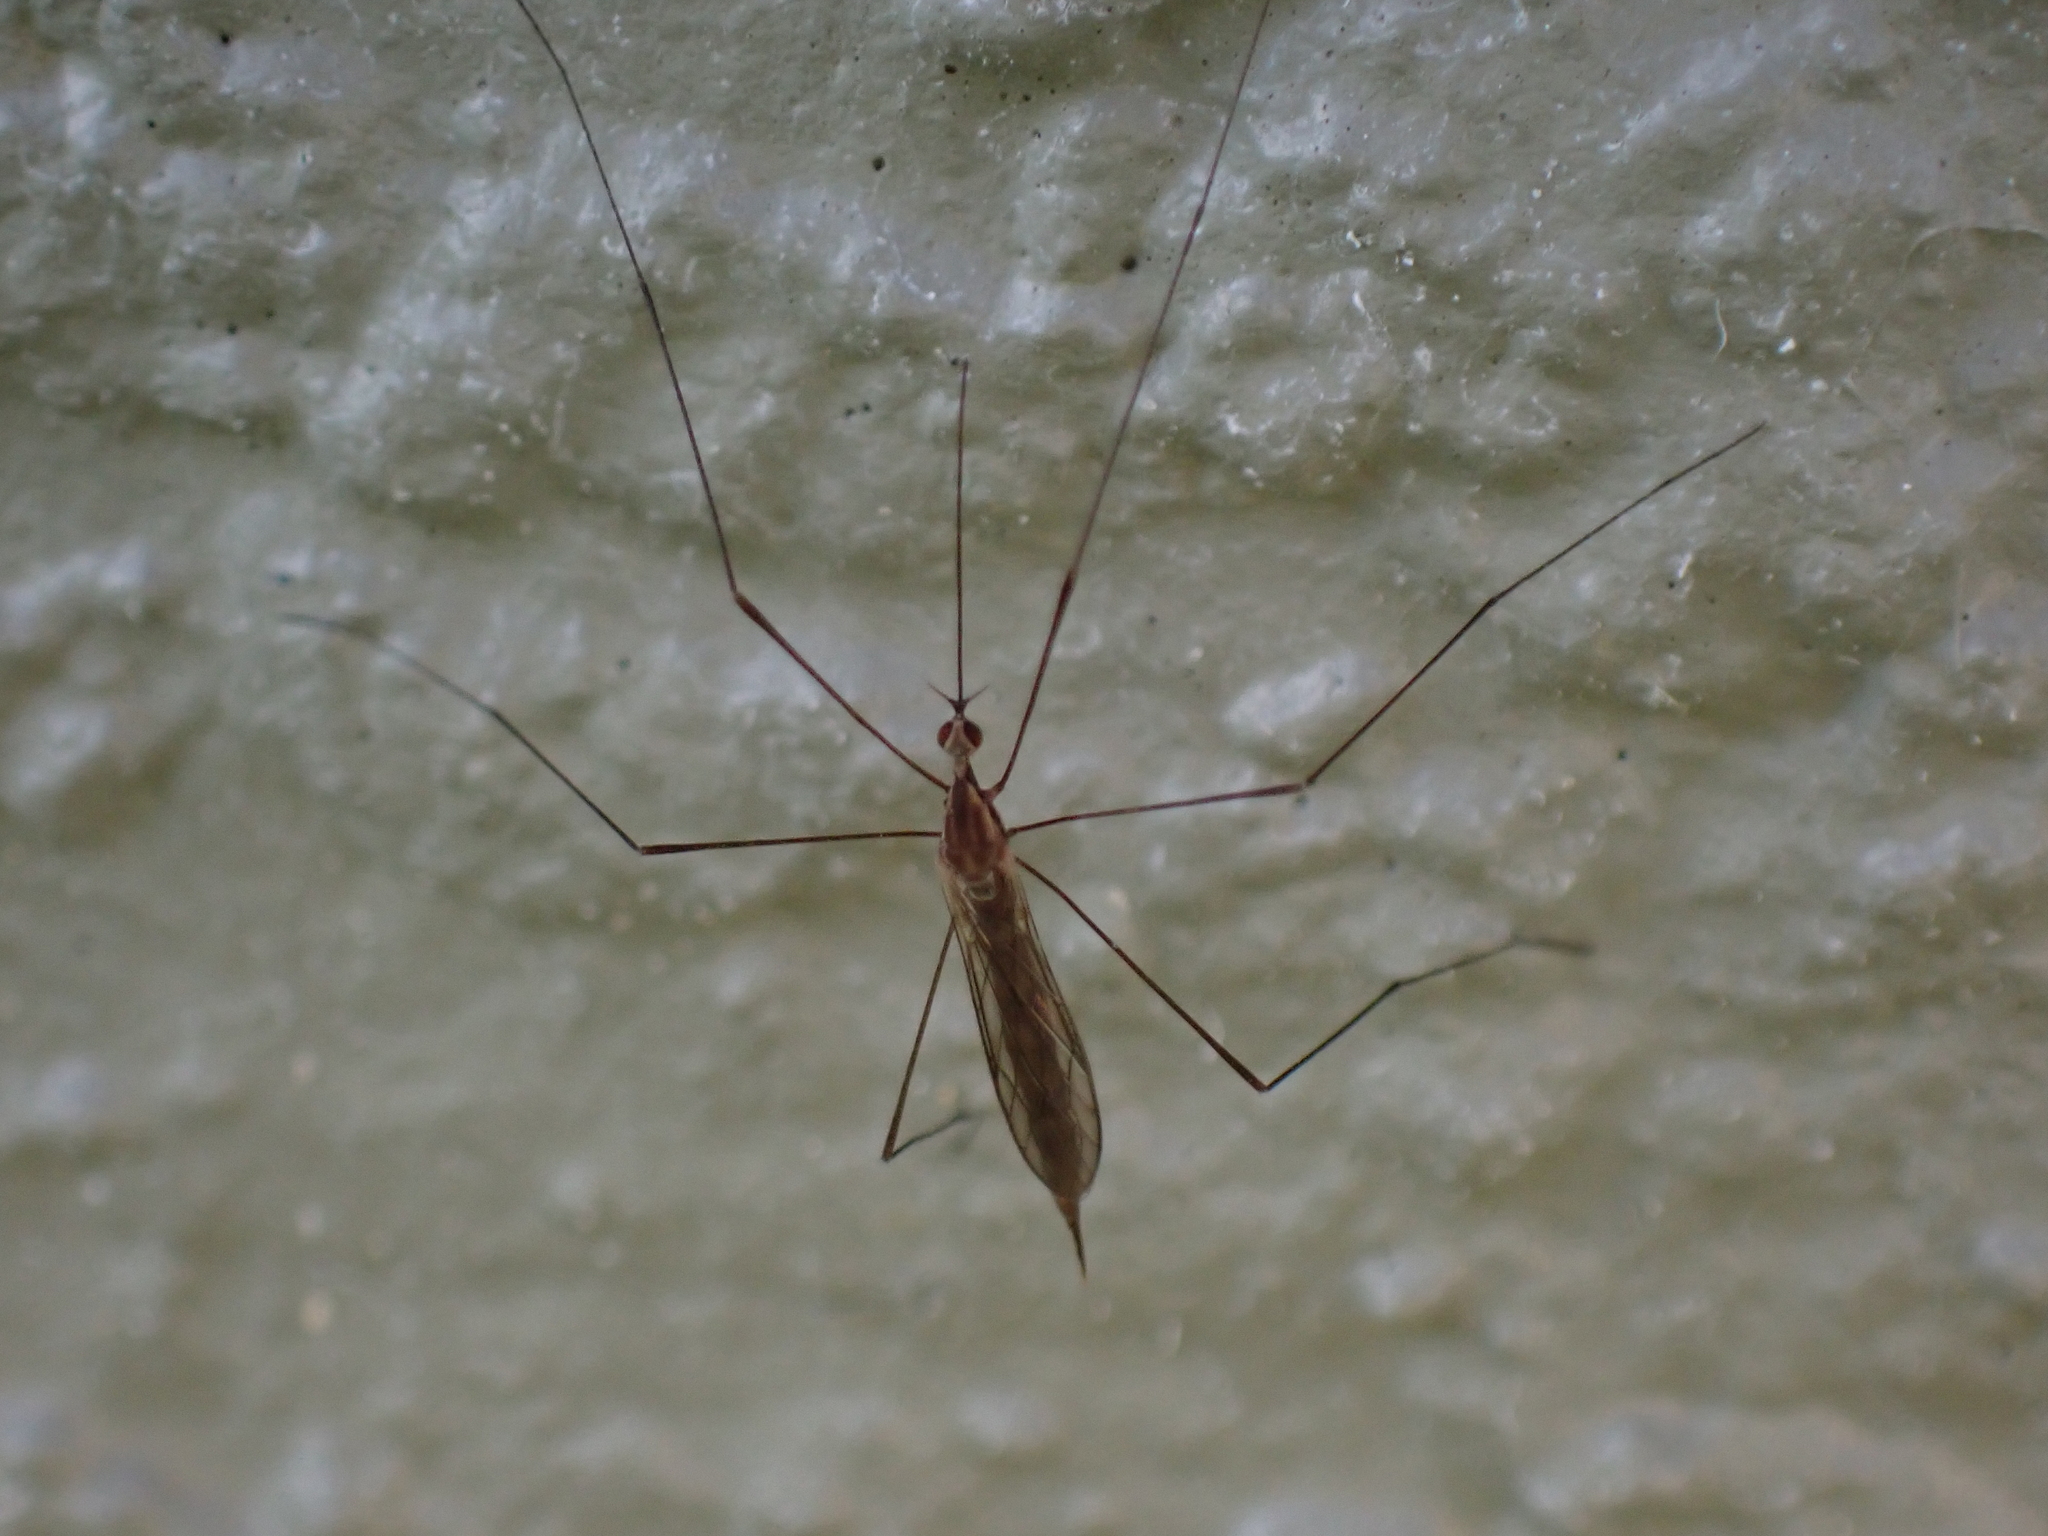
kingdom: Animalia
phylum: Arthropoda
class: Insecta
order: Diptera
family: Limoniidae
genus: Toxorhina
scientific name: Toxorhina magna
